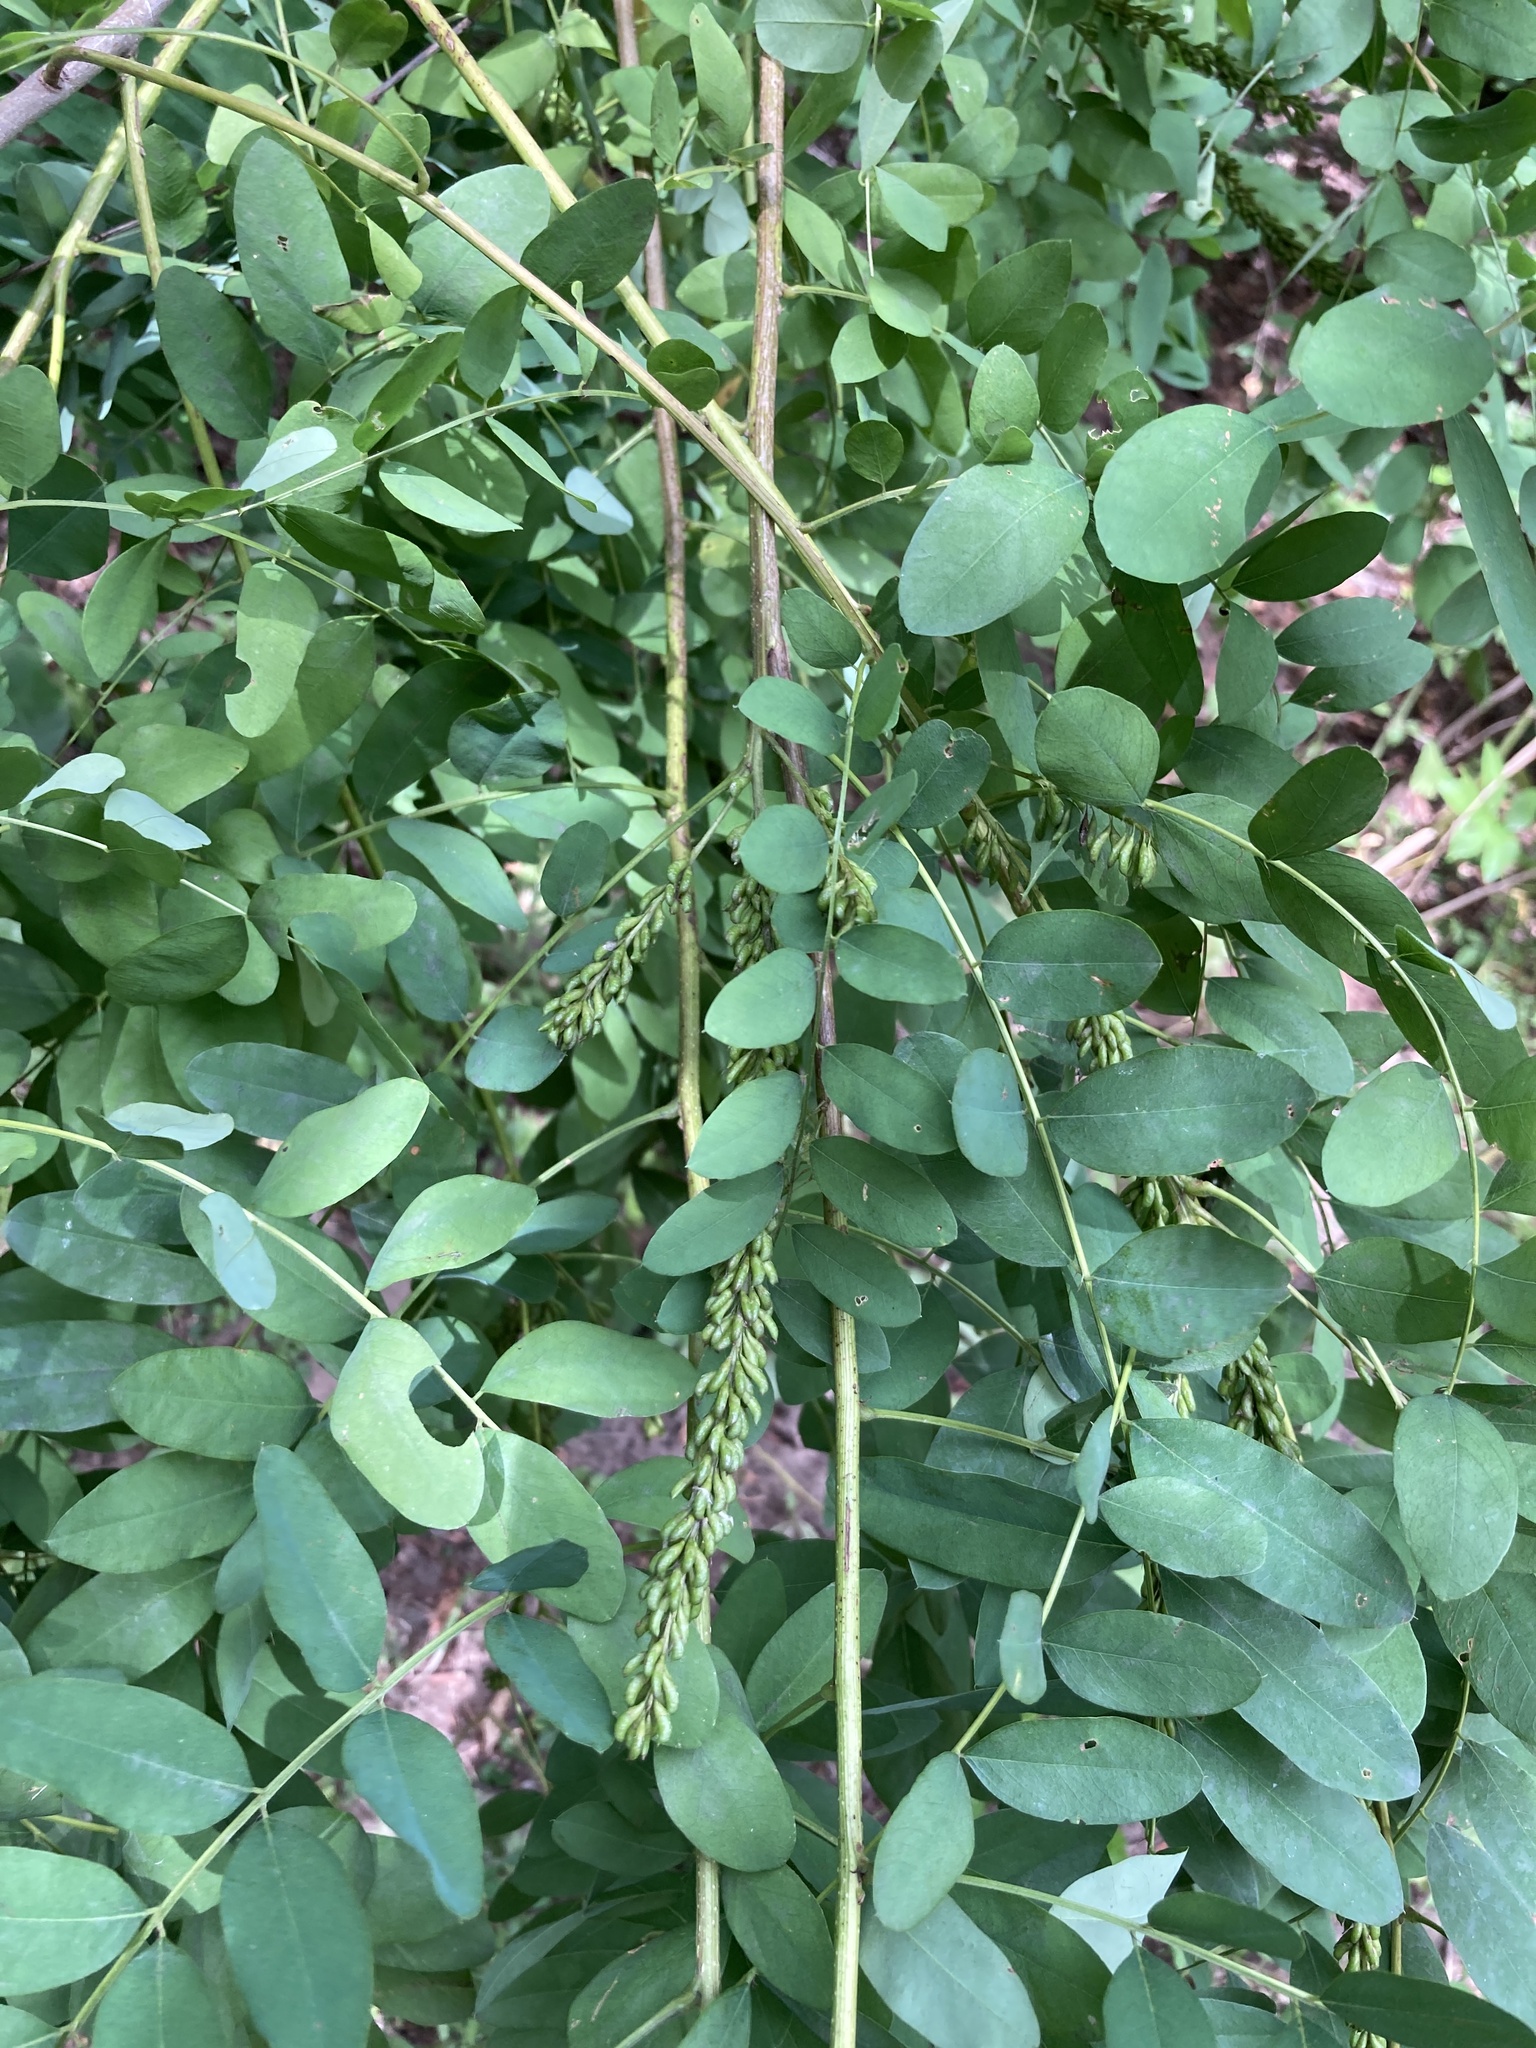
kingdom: Plantae
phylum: Tracheophyta
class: Magnoliopsida
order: Fabales
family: Fabaceae
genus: Amorpha
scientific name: Amorpha fruticosa
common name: False indigo
